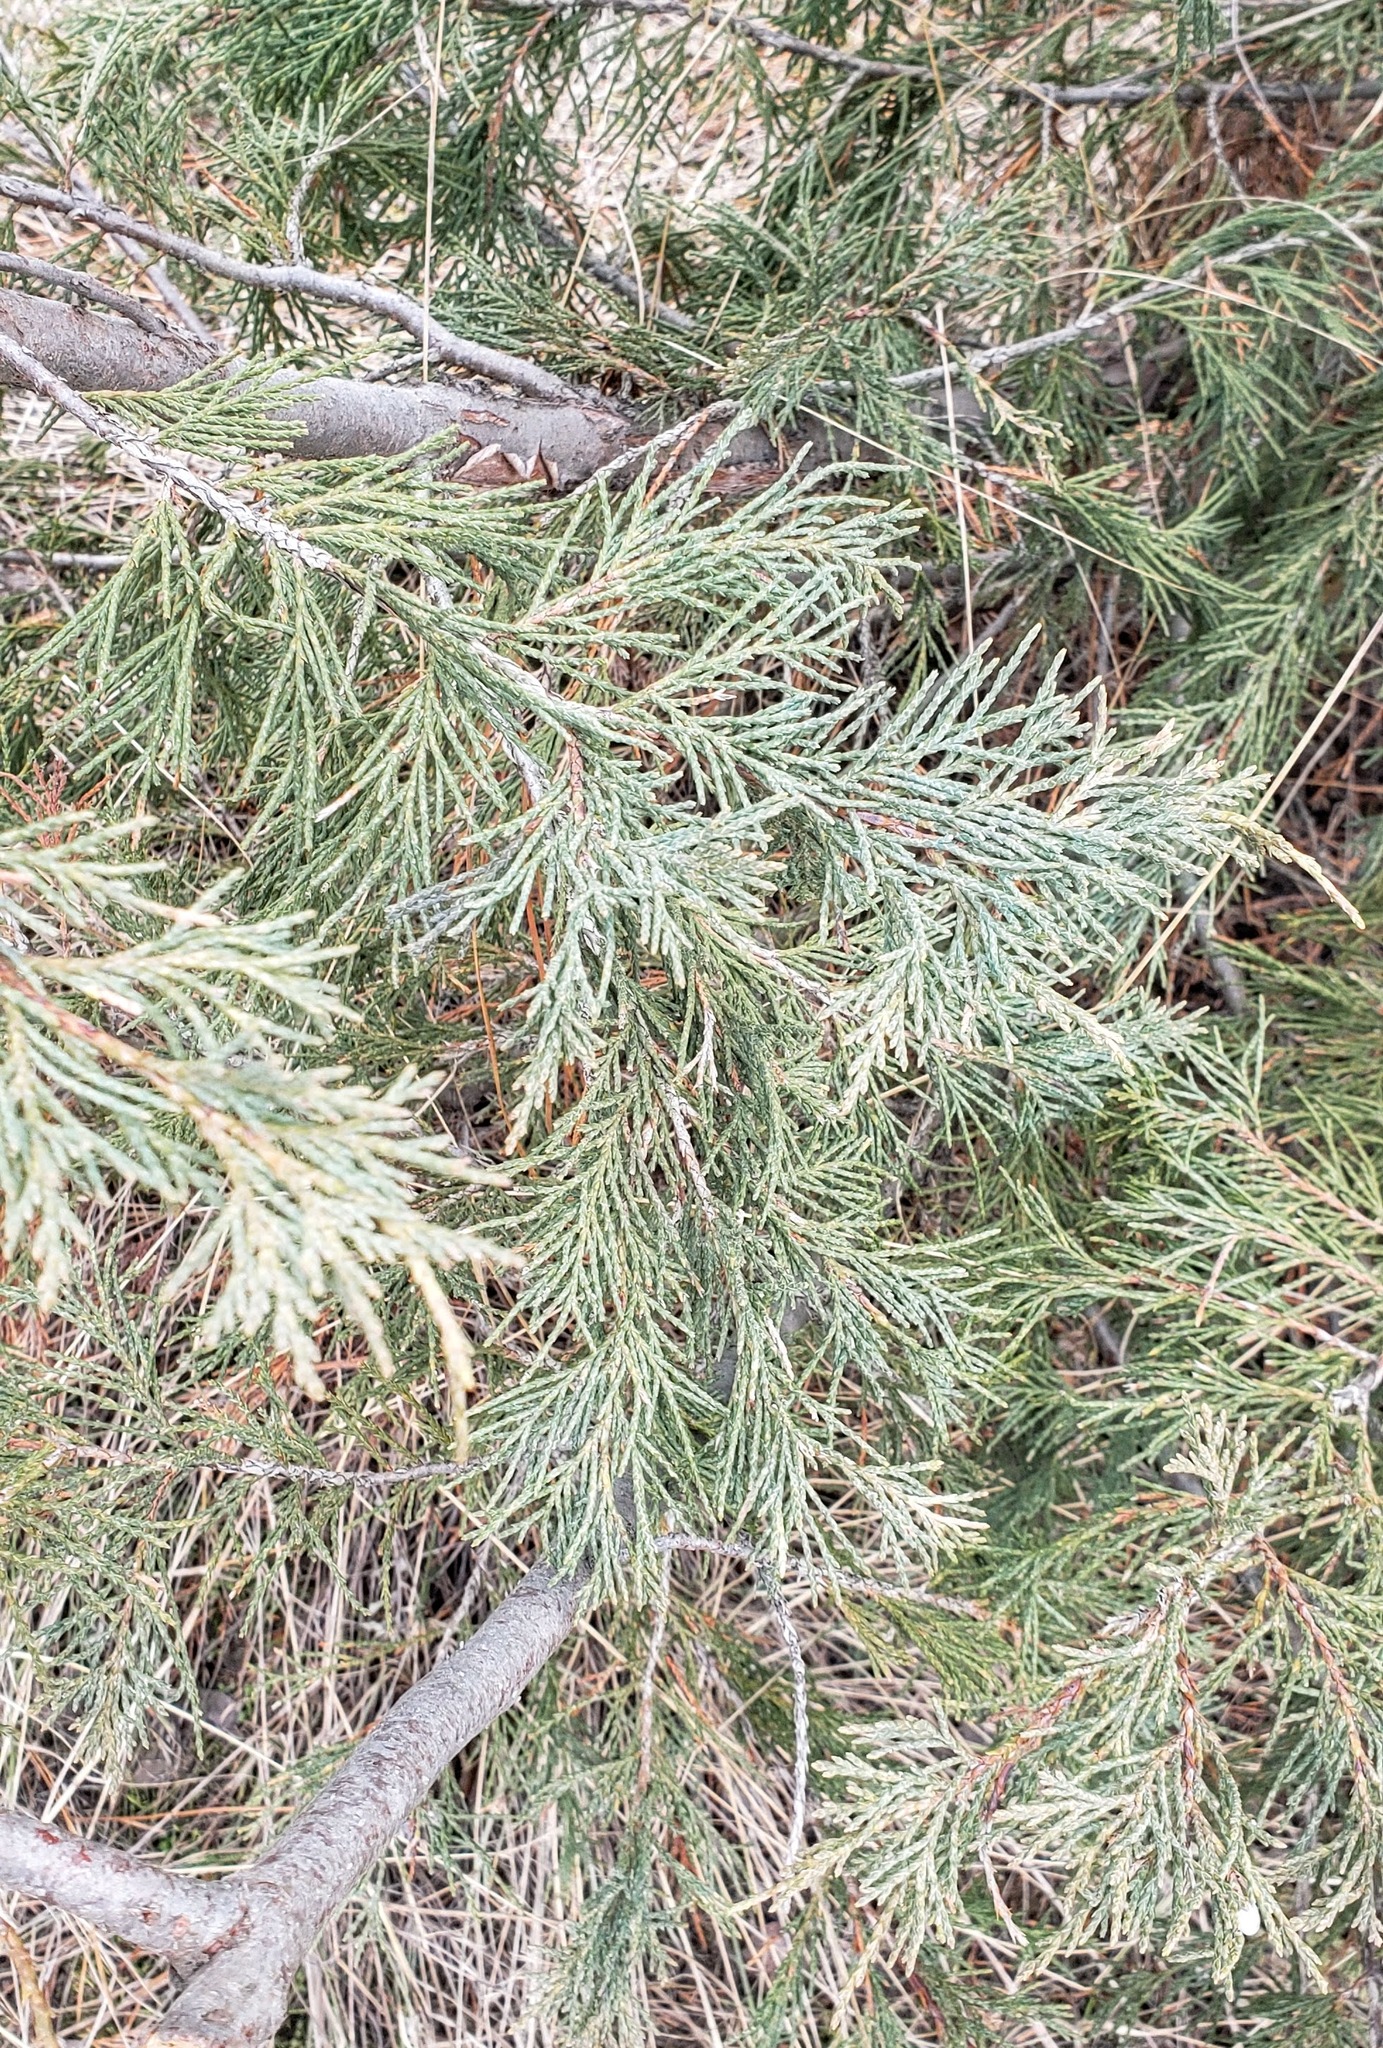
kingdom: Plantae
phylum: Tracheophyta
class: Pinopsida
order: Pinales
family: Cupressaceae
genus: Juniperus
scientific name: Juniperus scopulorum
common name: Rocky mountain juniper
